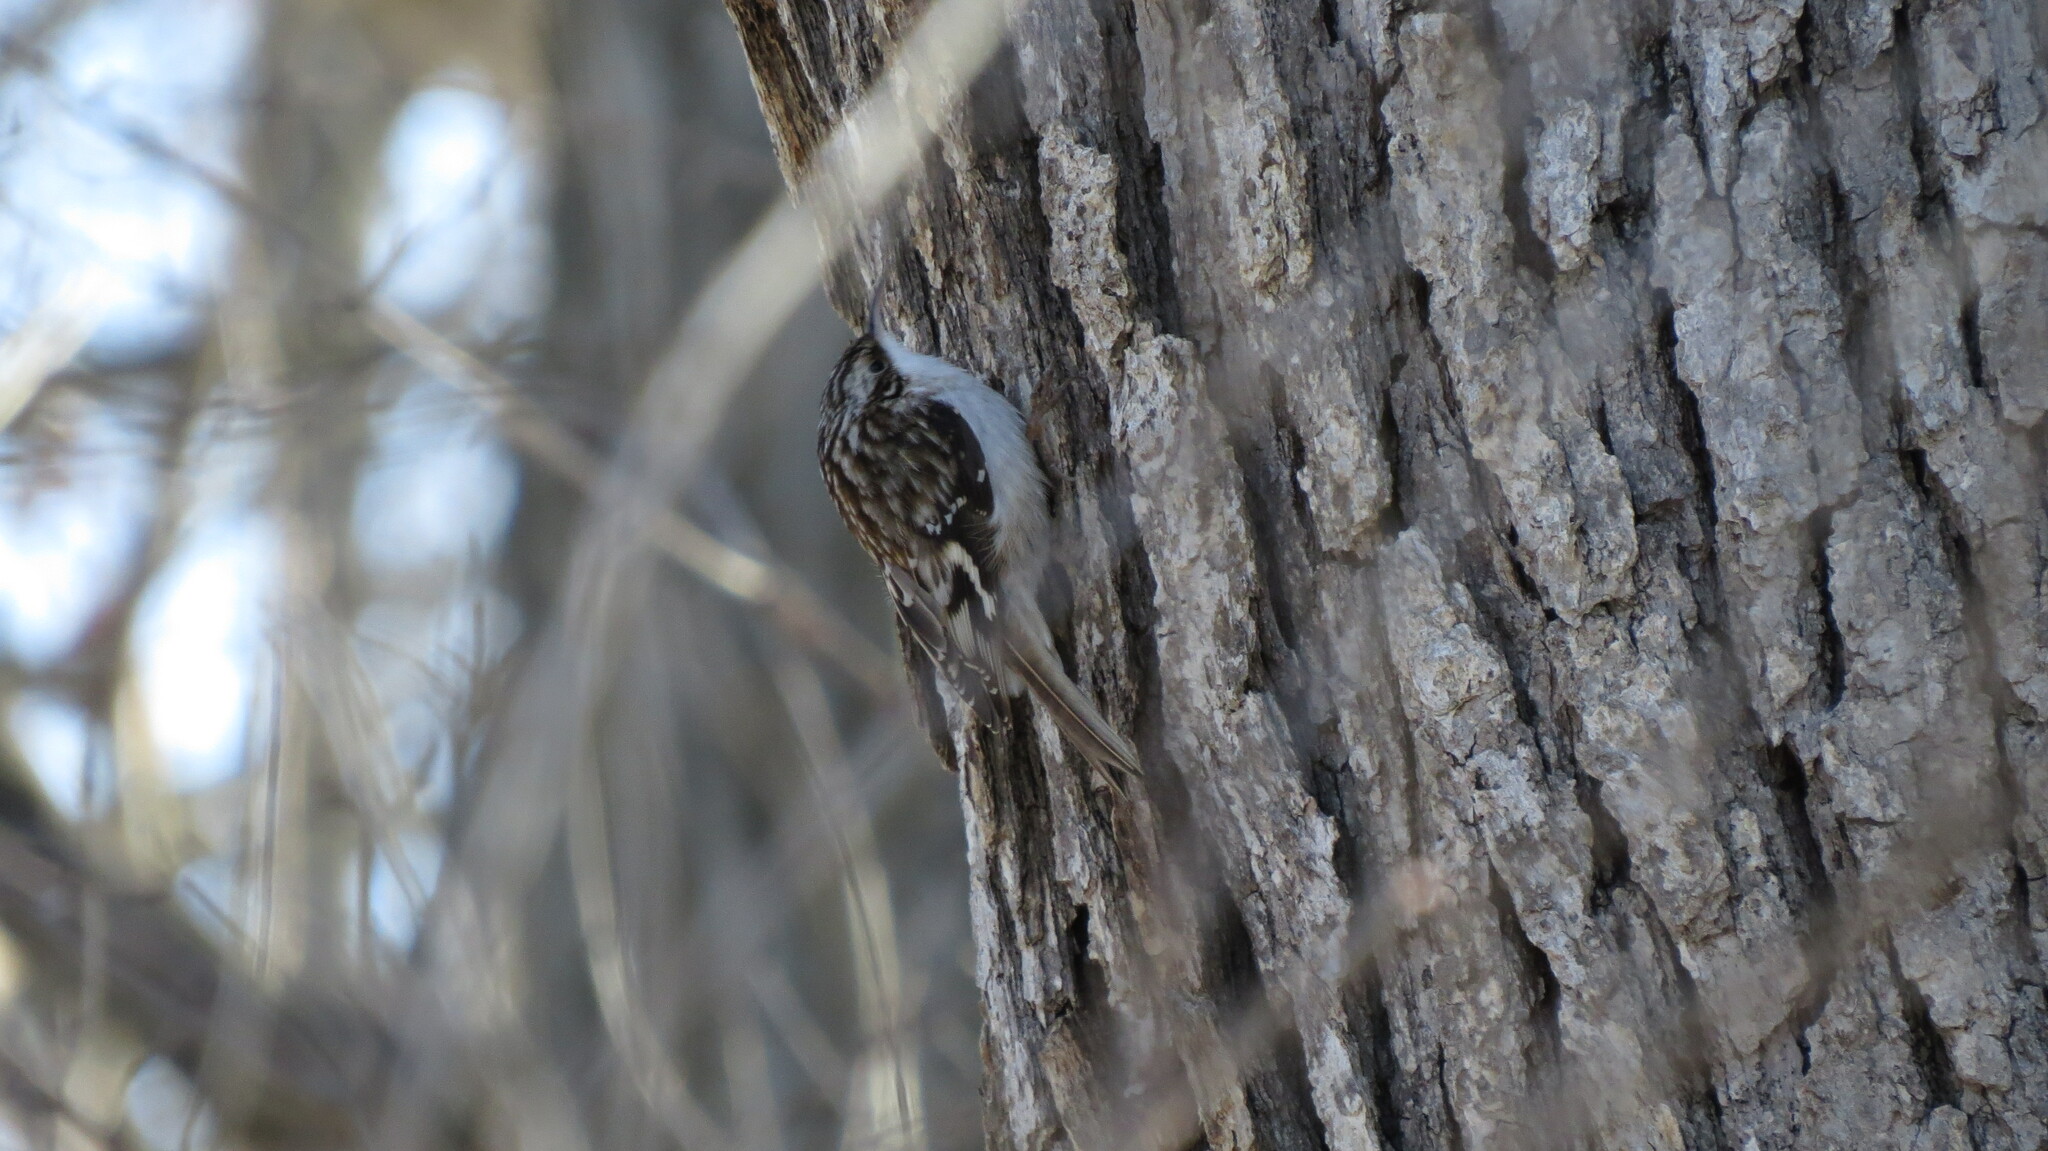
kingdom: Animalia
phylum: Chordata
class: Aves
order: Passeriformes
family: Certhiidae
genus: Certhia
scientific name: Certhia americana
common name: Brown creeper
